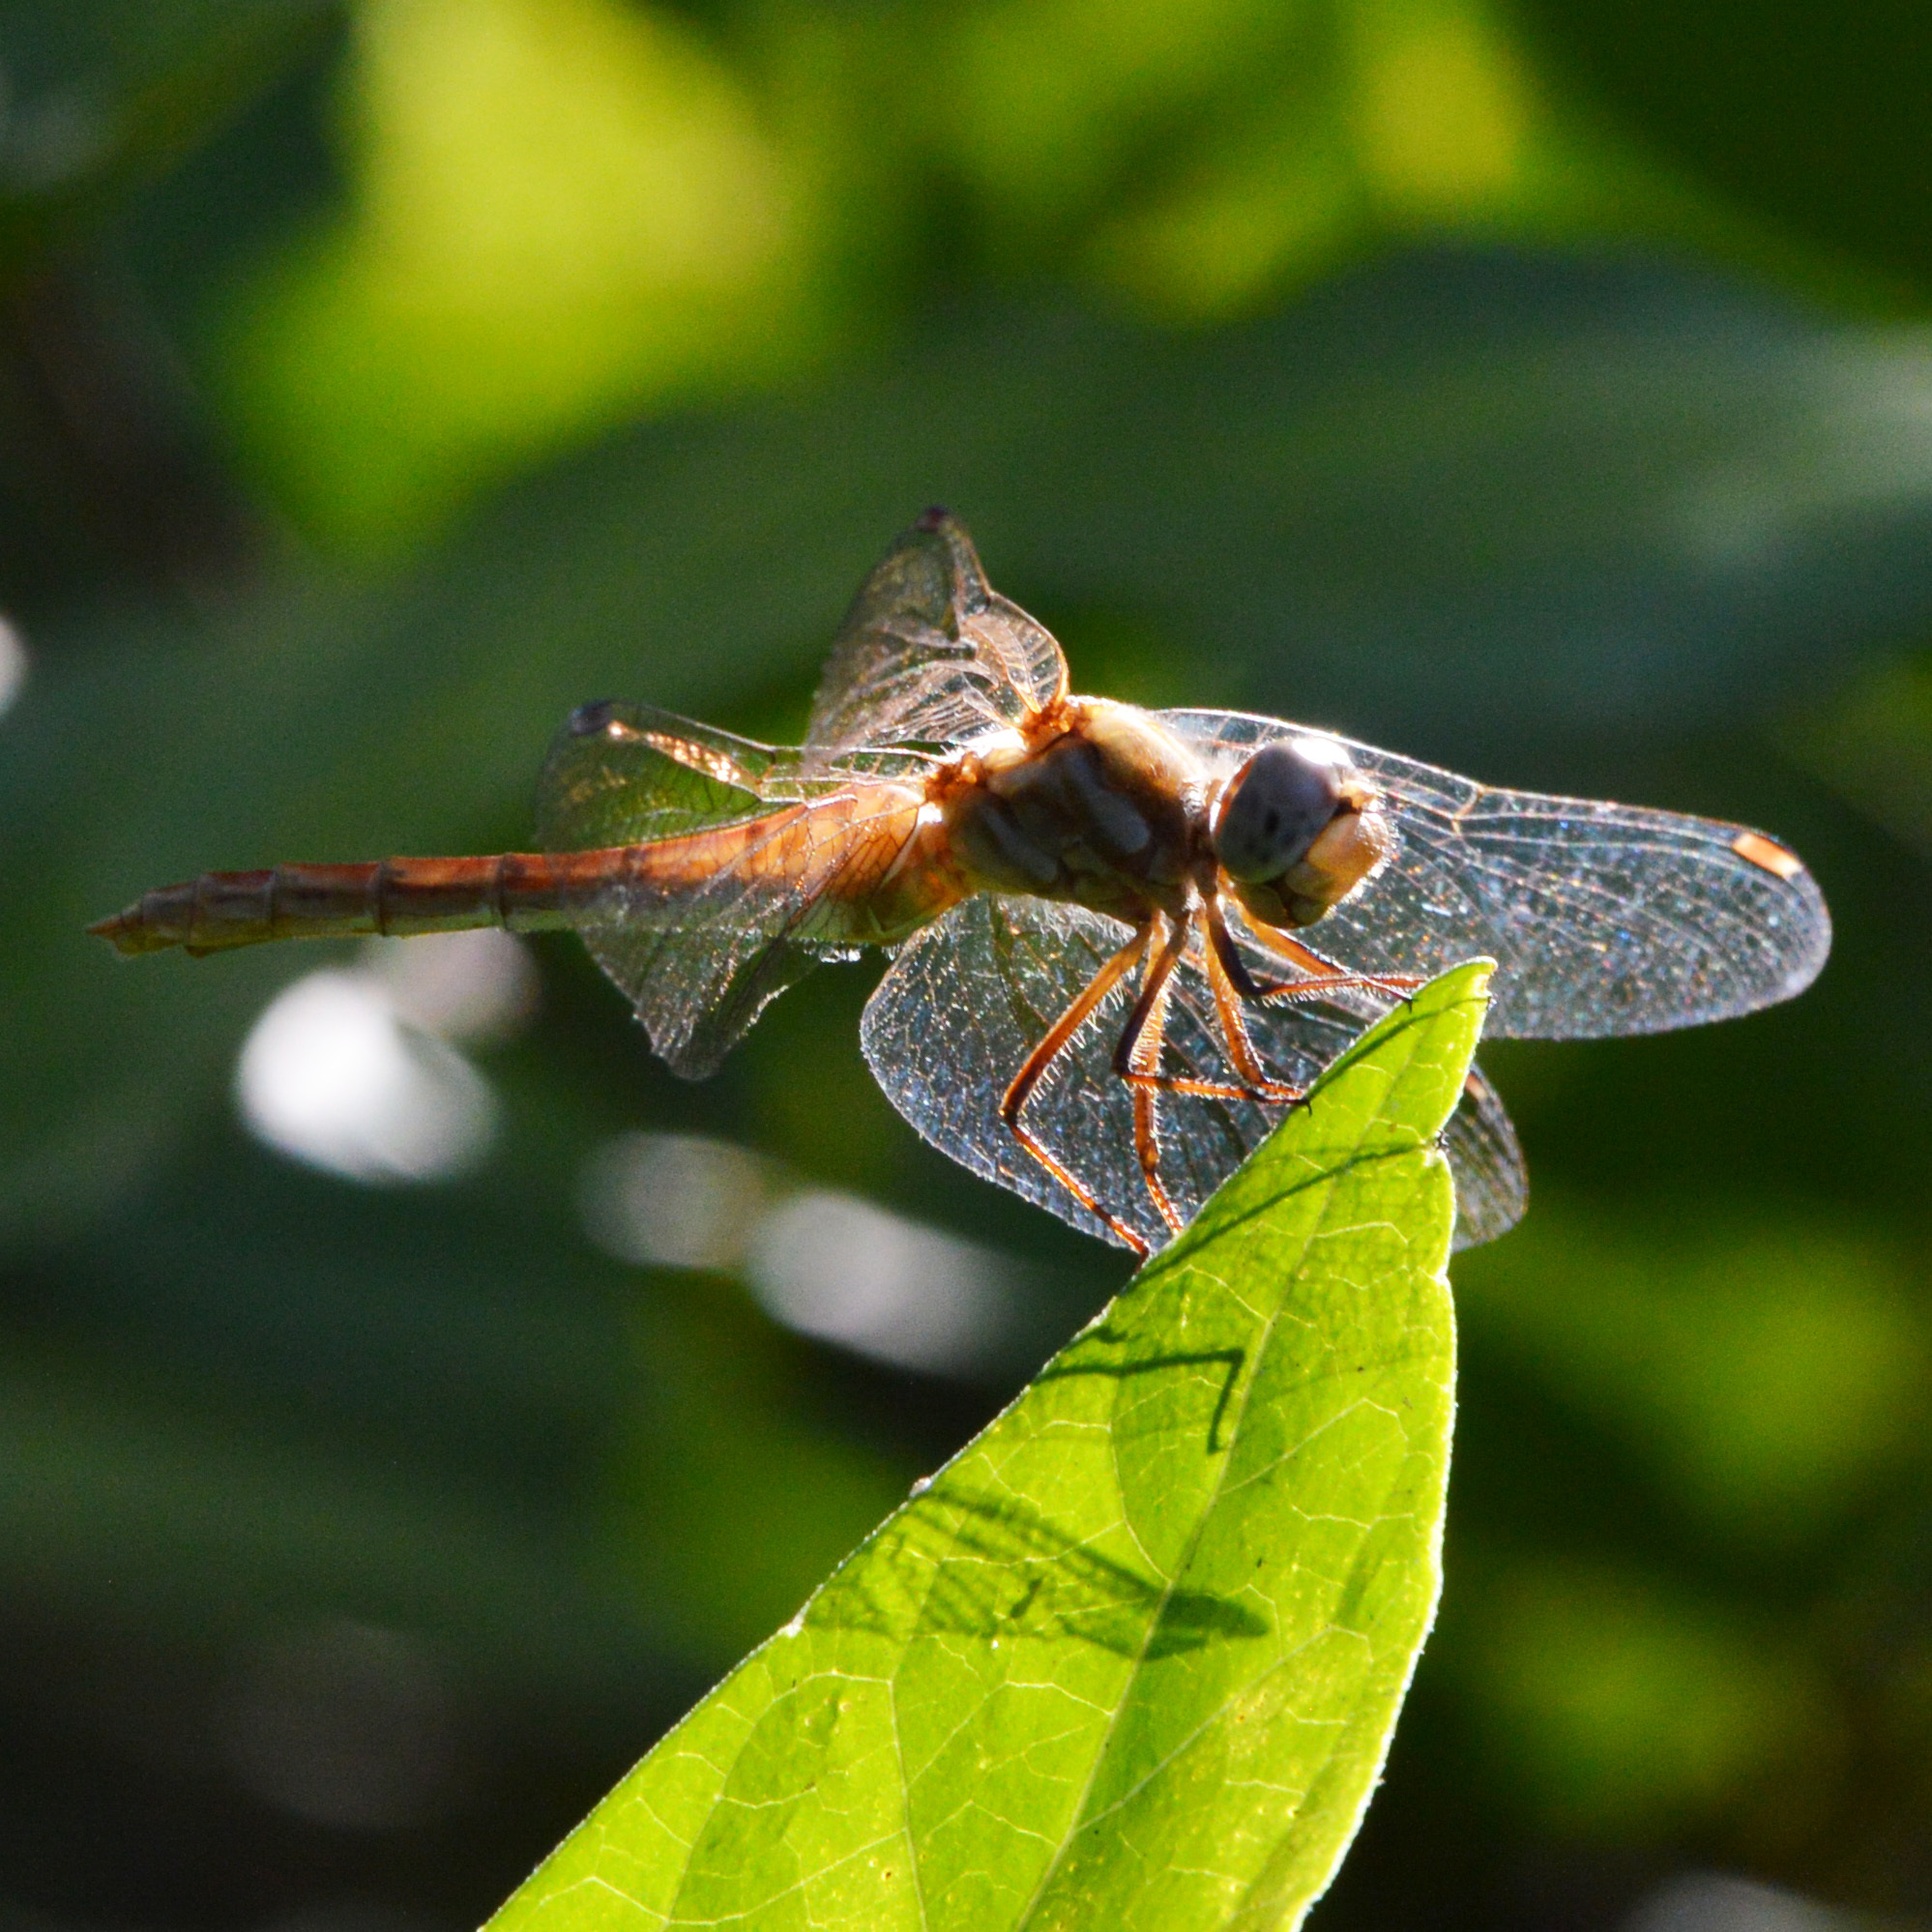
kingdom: Animalia
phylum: Arthropoda
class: Insecta
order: Odonata
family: Libellulidae
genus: Sympetrum
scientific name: Sympetrum pallipes
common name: Striped meadowhawk
